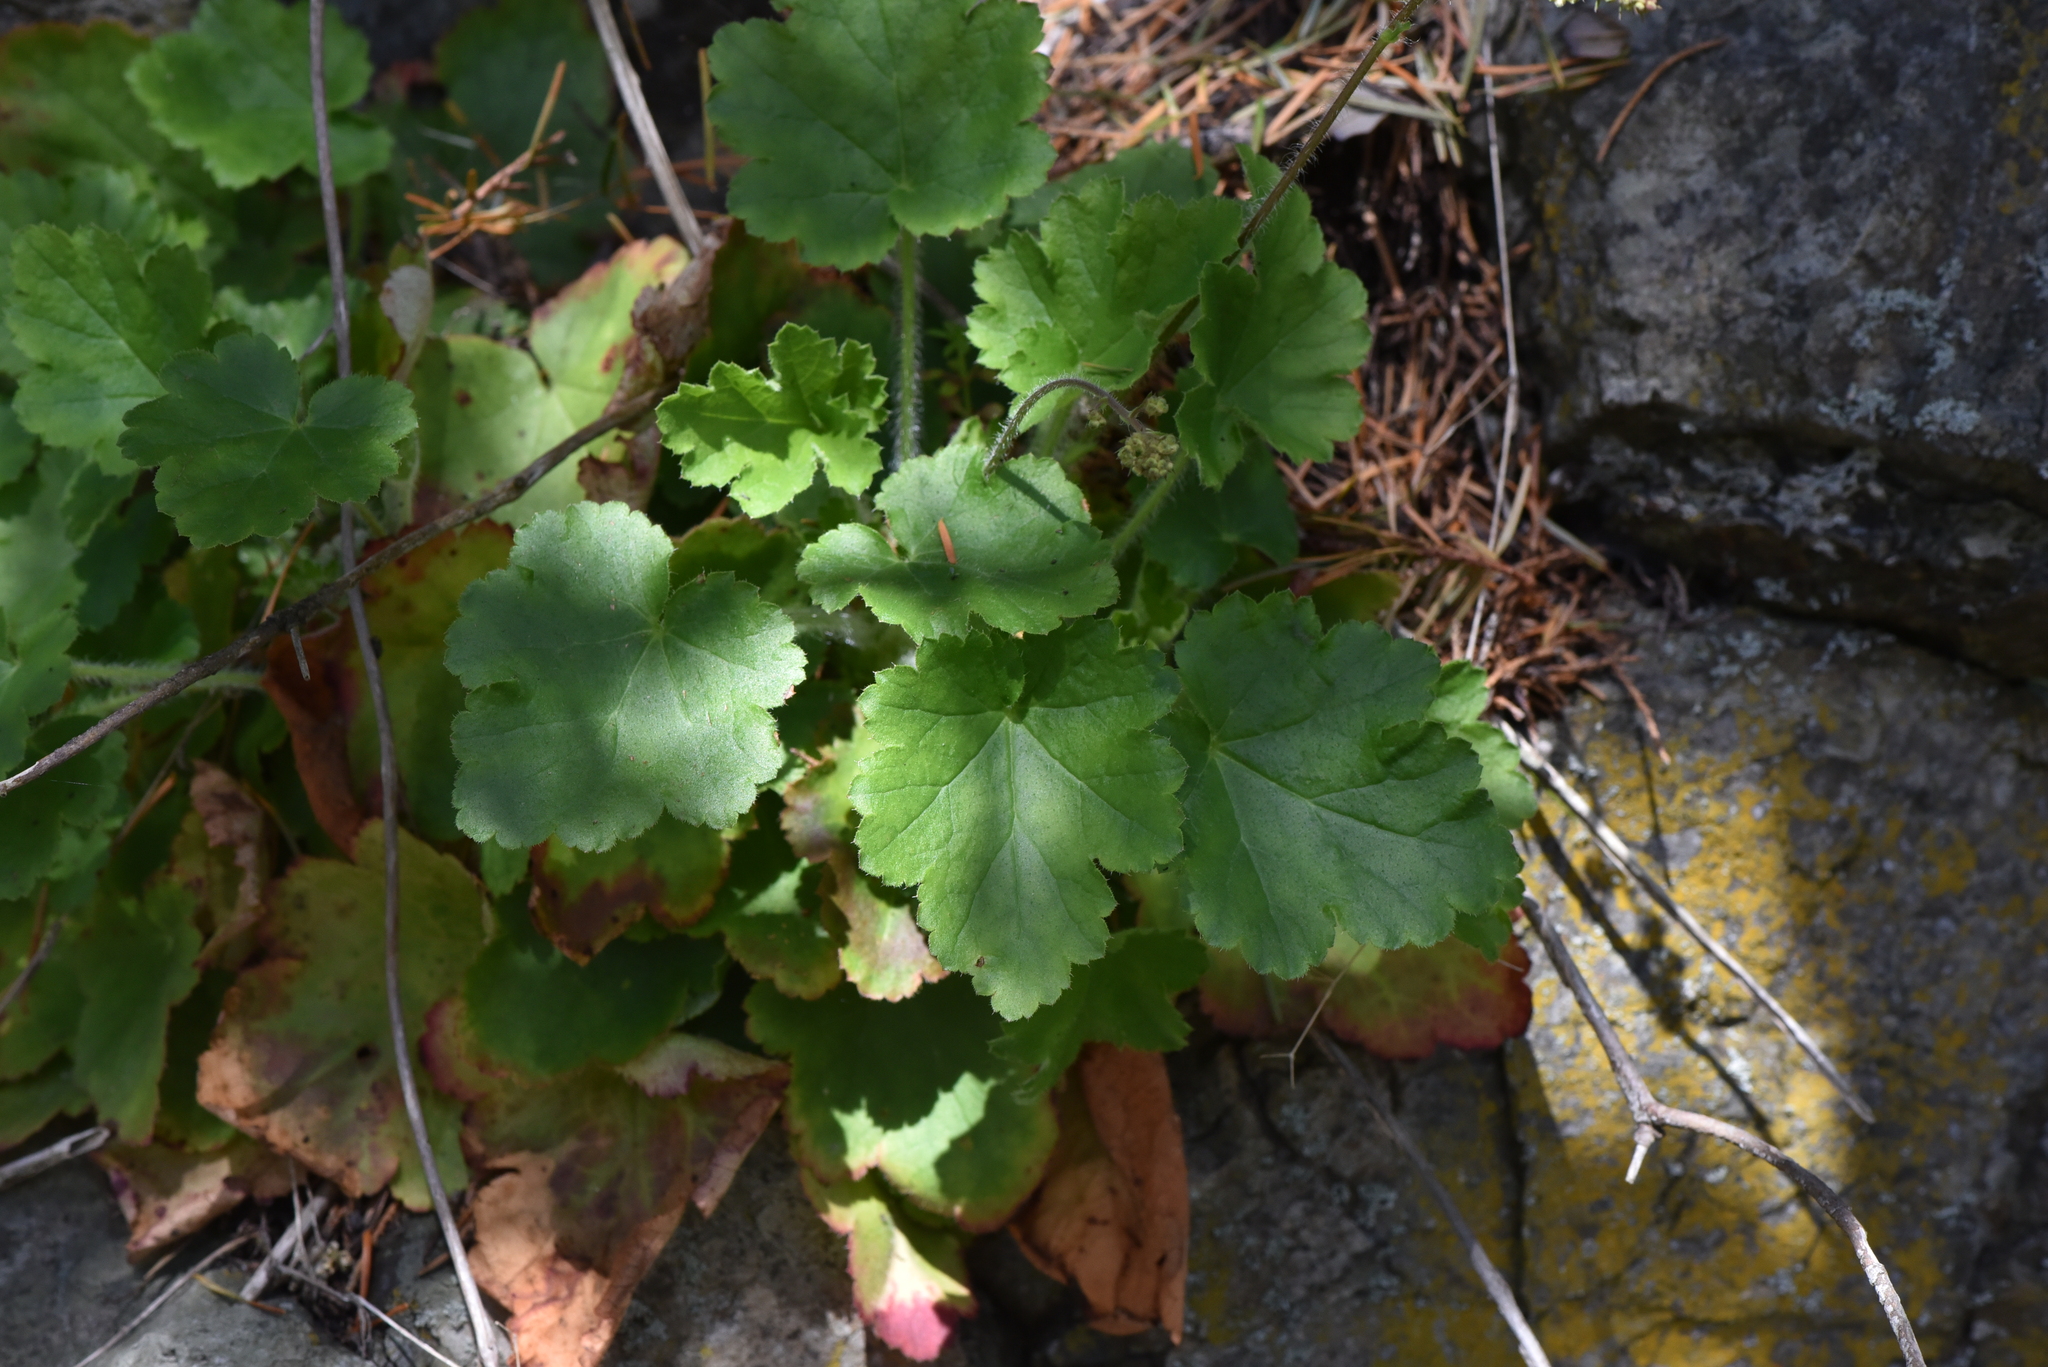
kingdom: Plantae
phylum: Tracheophyta
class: Magnoliopsida
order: Saxifragales
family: Saxifragaceae
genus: Heuchera
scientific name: Heuchera micrantha
